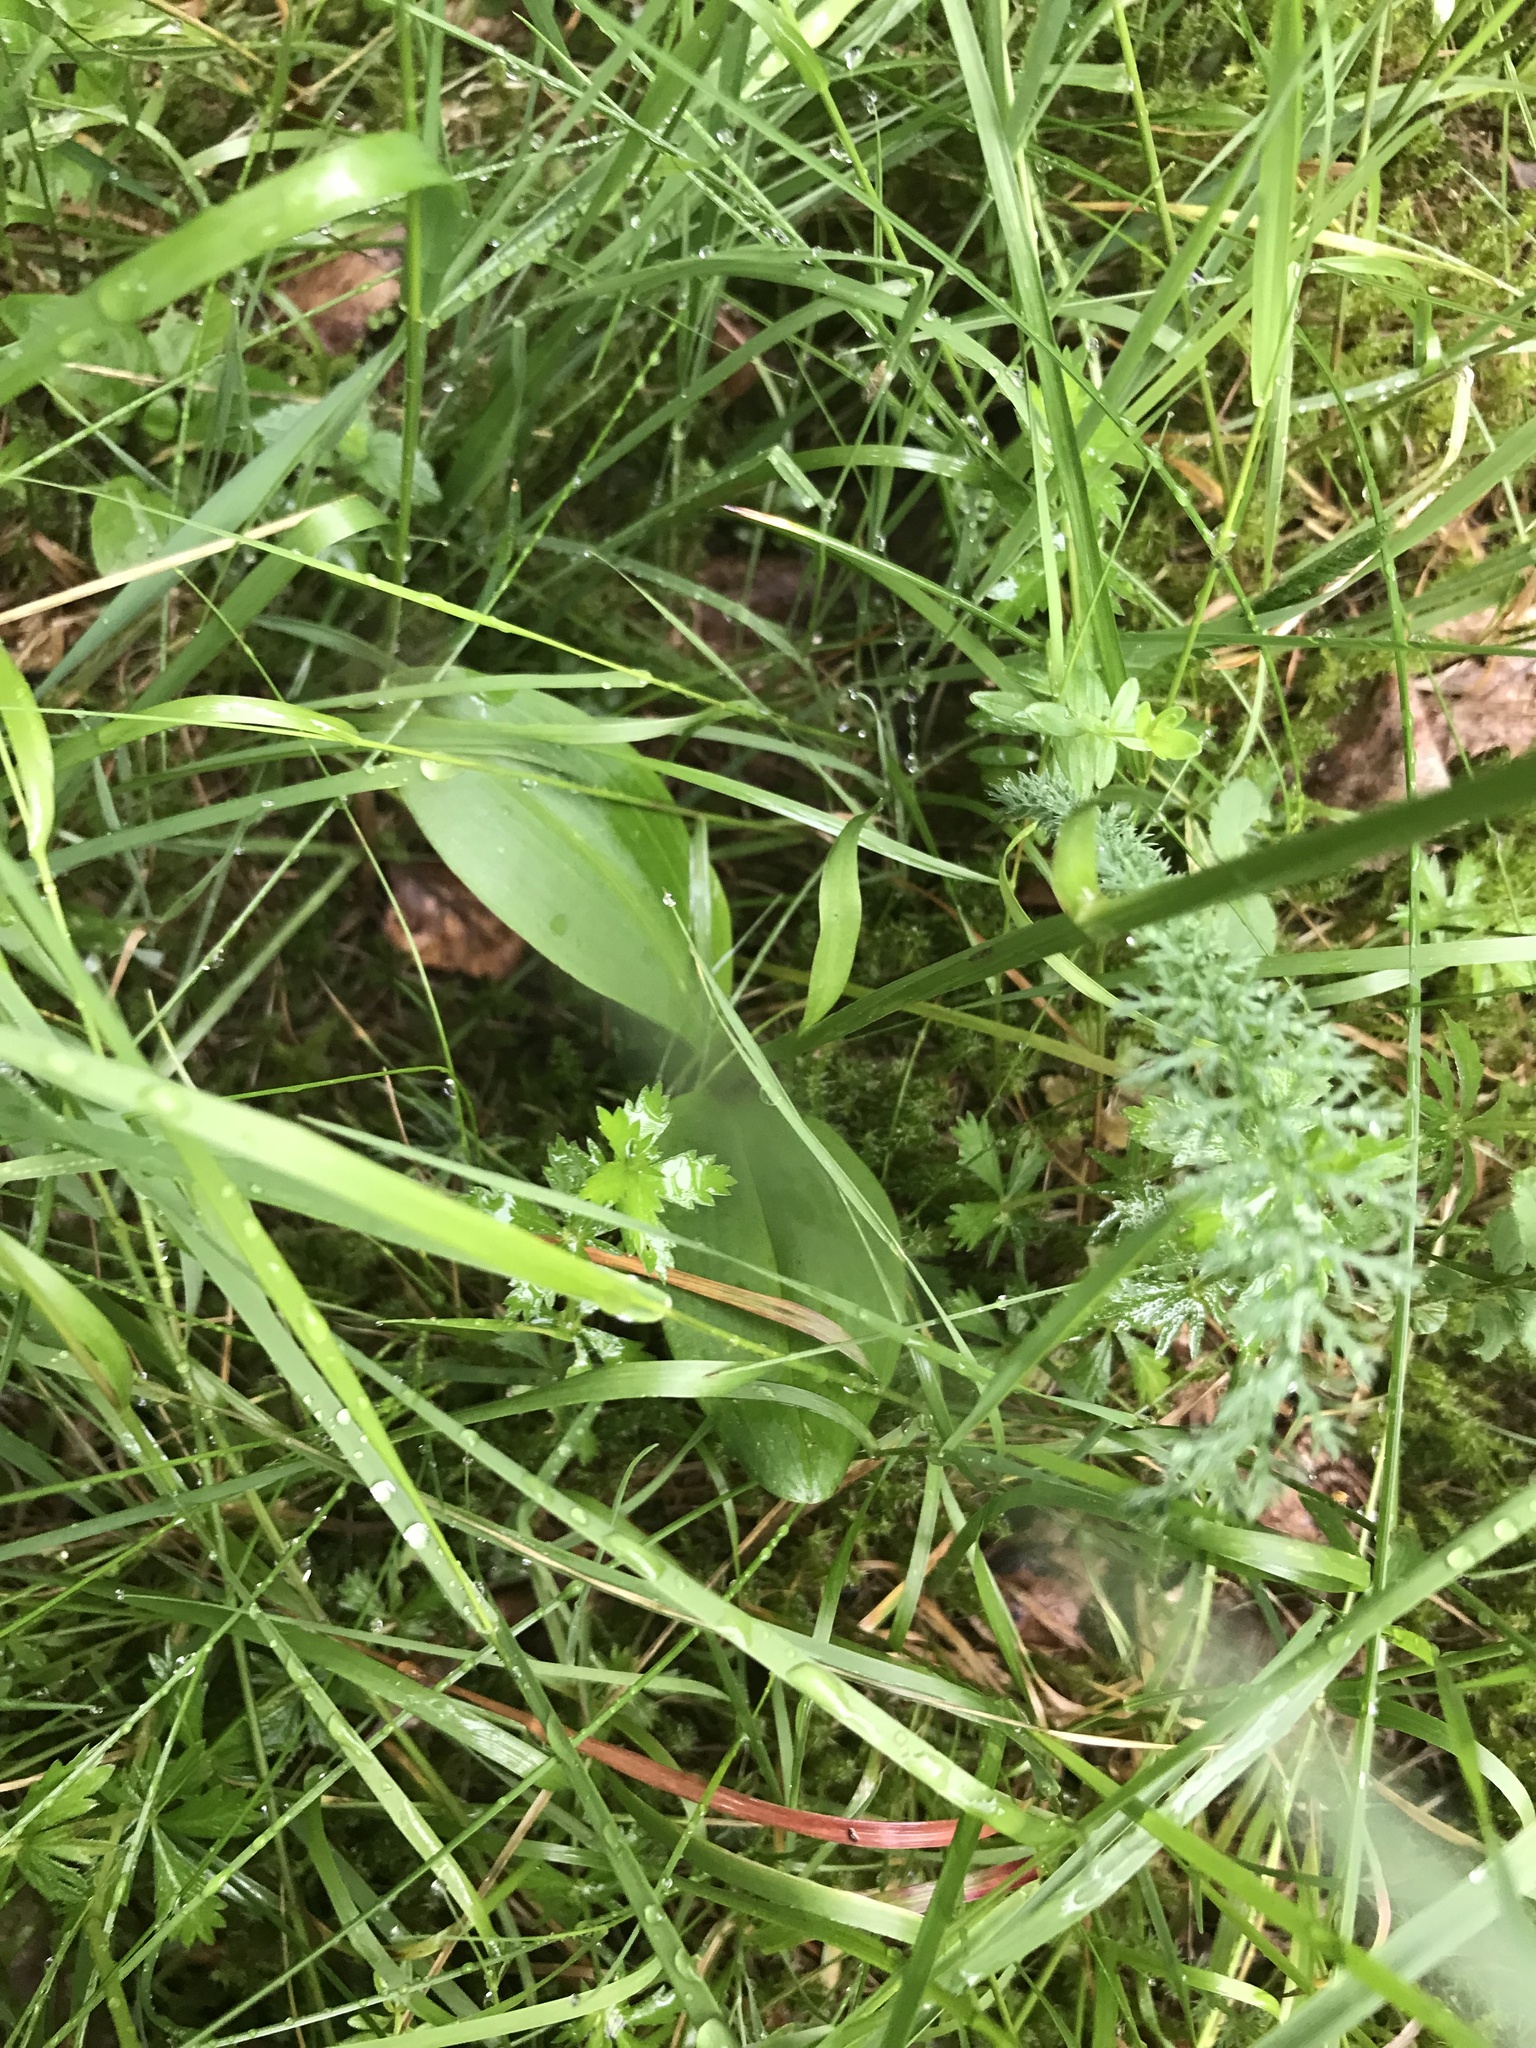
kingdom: Plantae
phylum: Tracheophyta
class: Liliopsida
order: Asparagales
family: Orchidaceae
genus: Platanthera
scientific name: Platanthera bifolia
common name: Lesser butterfly-orchid
